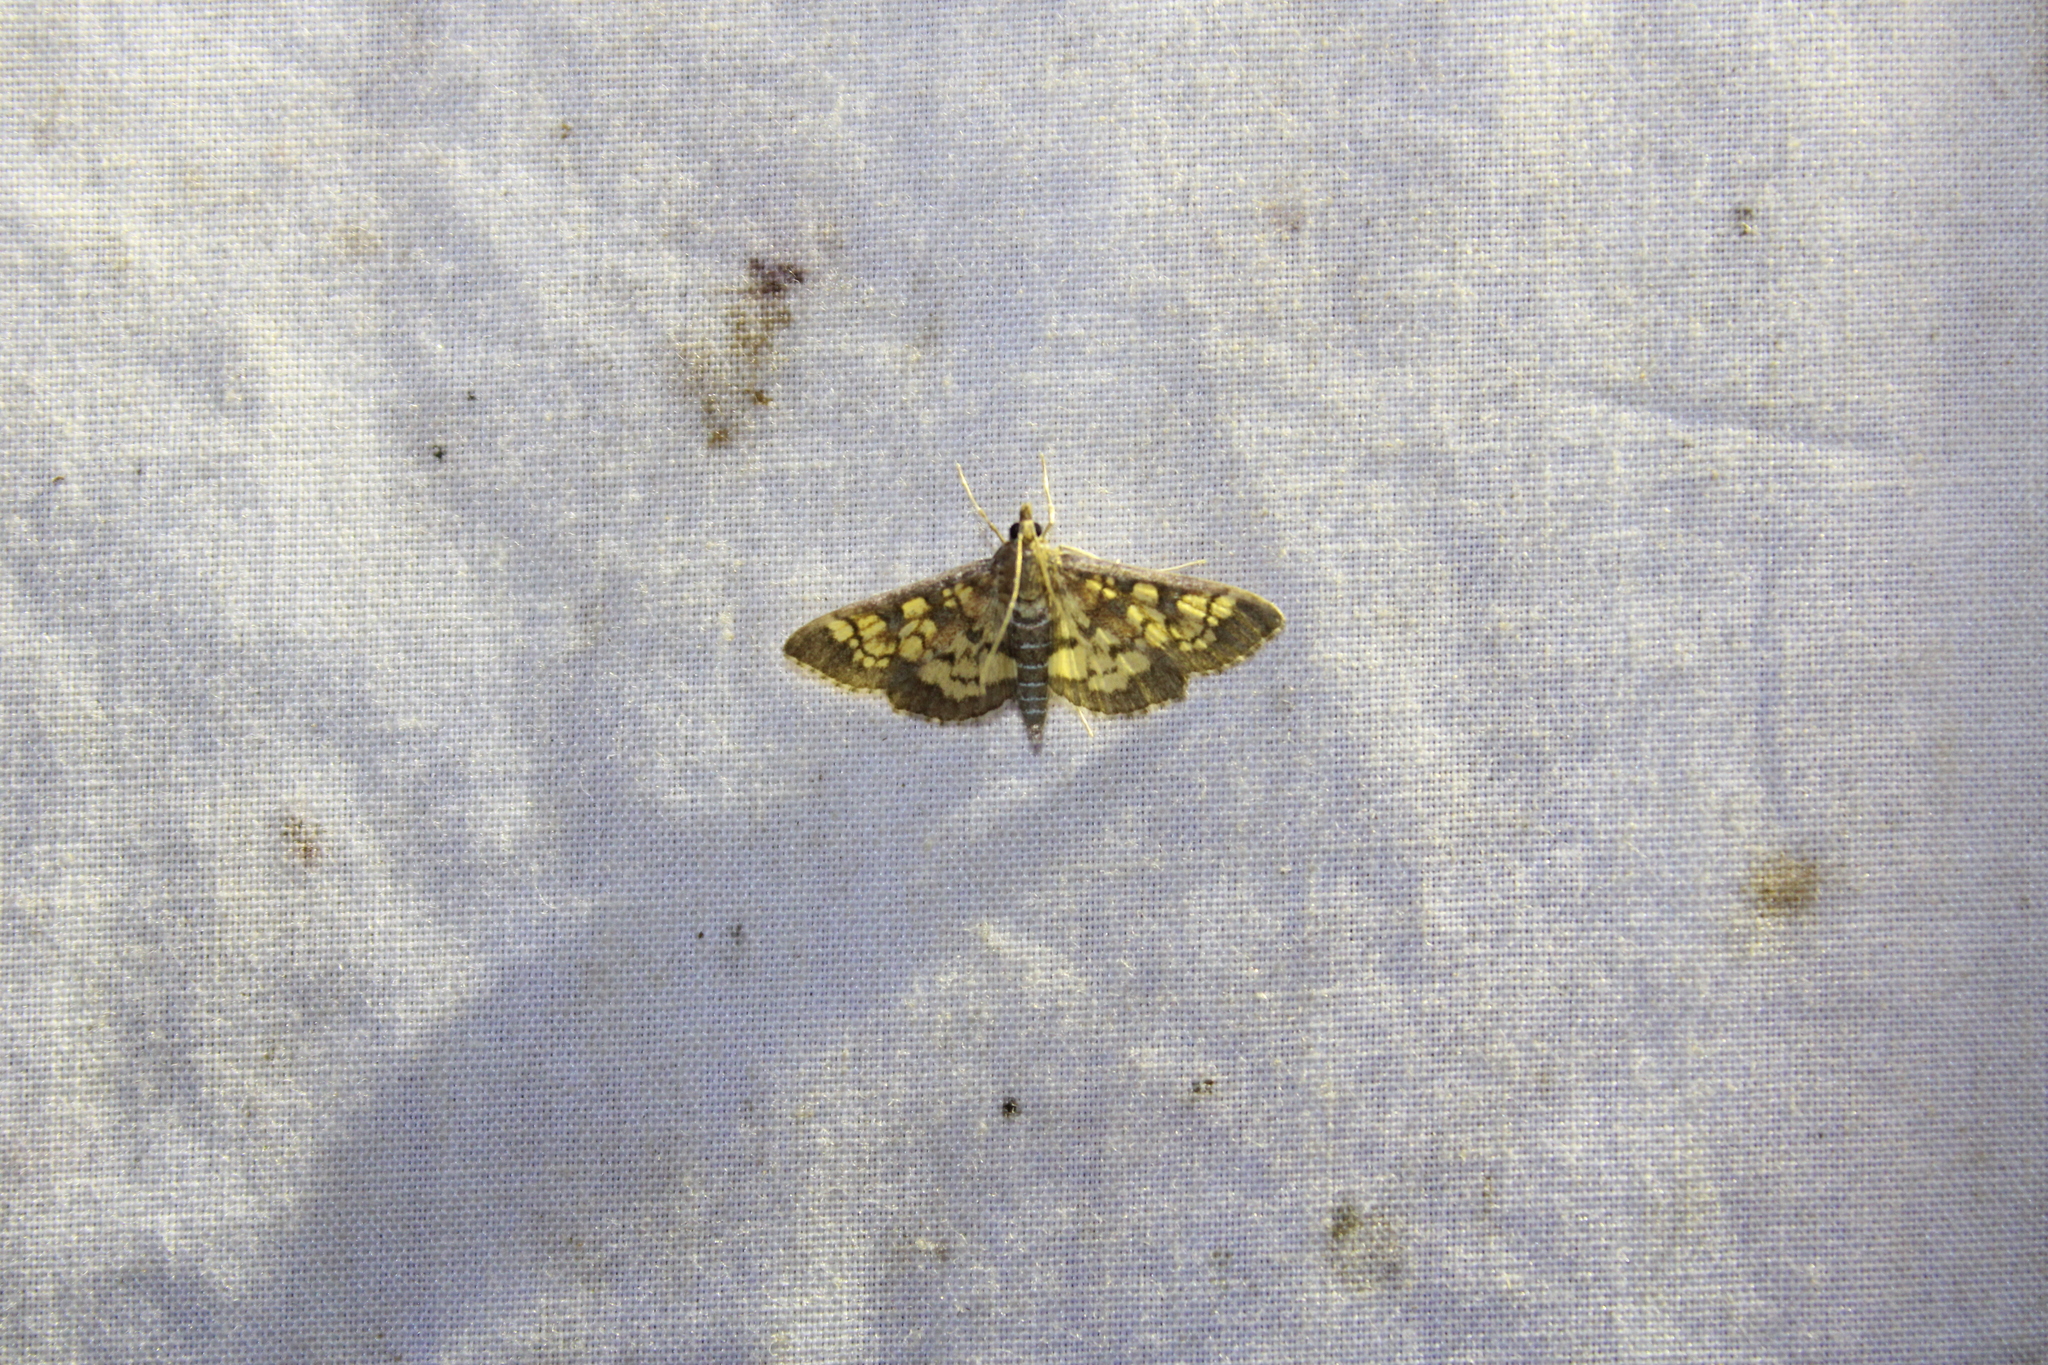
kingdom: Animalia
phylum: Arthropoda
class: Insecta
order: Lepidoptera
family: Crambidae
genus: Epipagis
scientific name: Epipagis adipaloides
